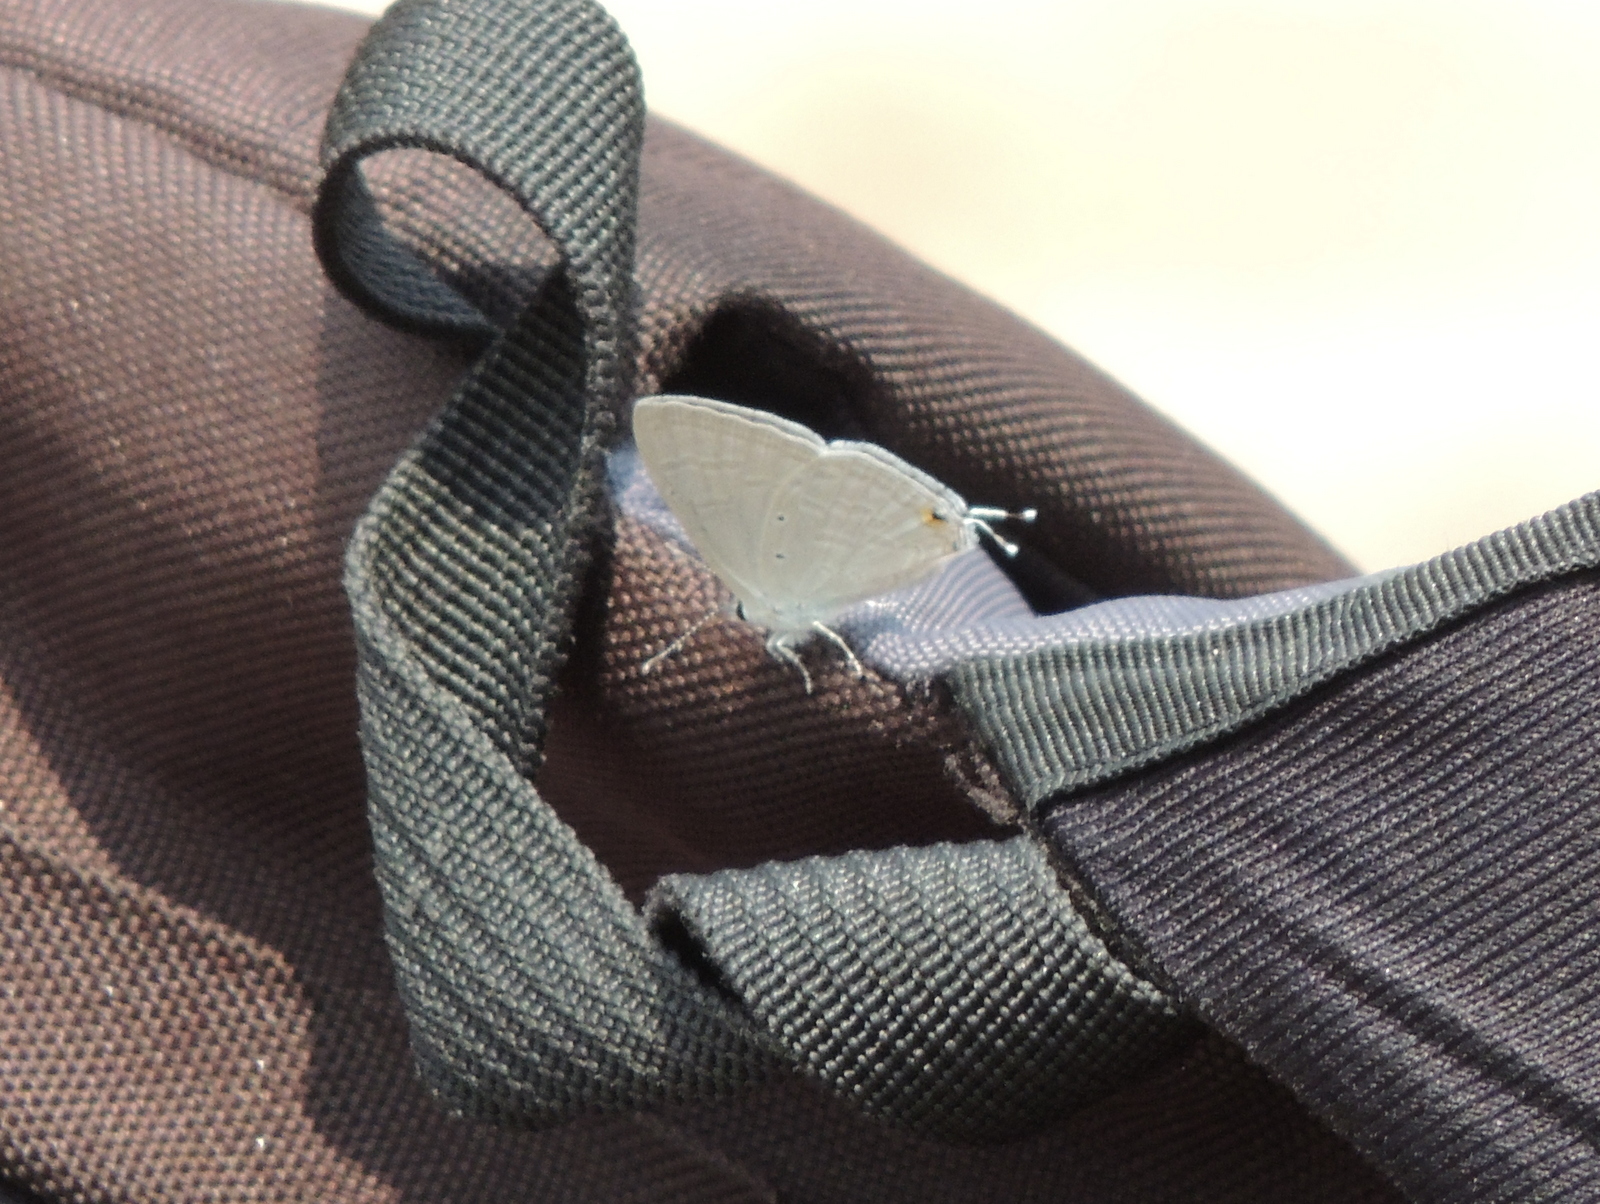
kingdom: Animalia
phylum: Arthropoda
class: Insecta
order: Lepidoptera
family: Lycaenidae
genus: Catochrysops
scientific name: Catochrysops strabo
